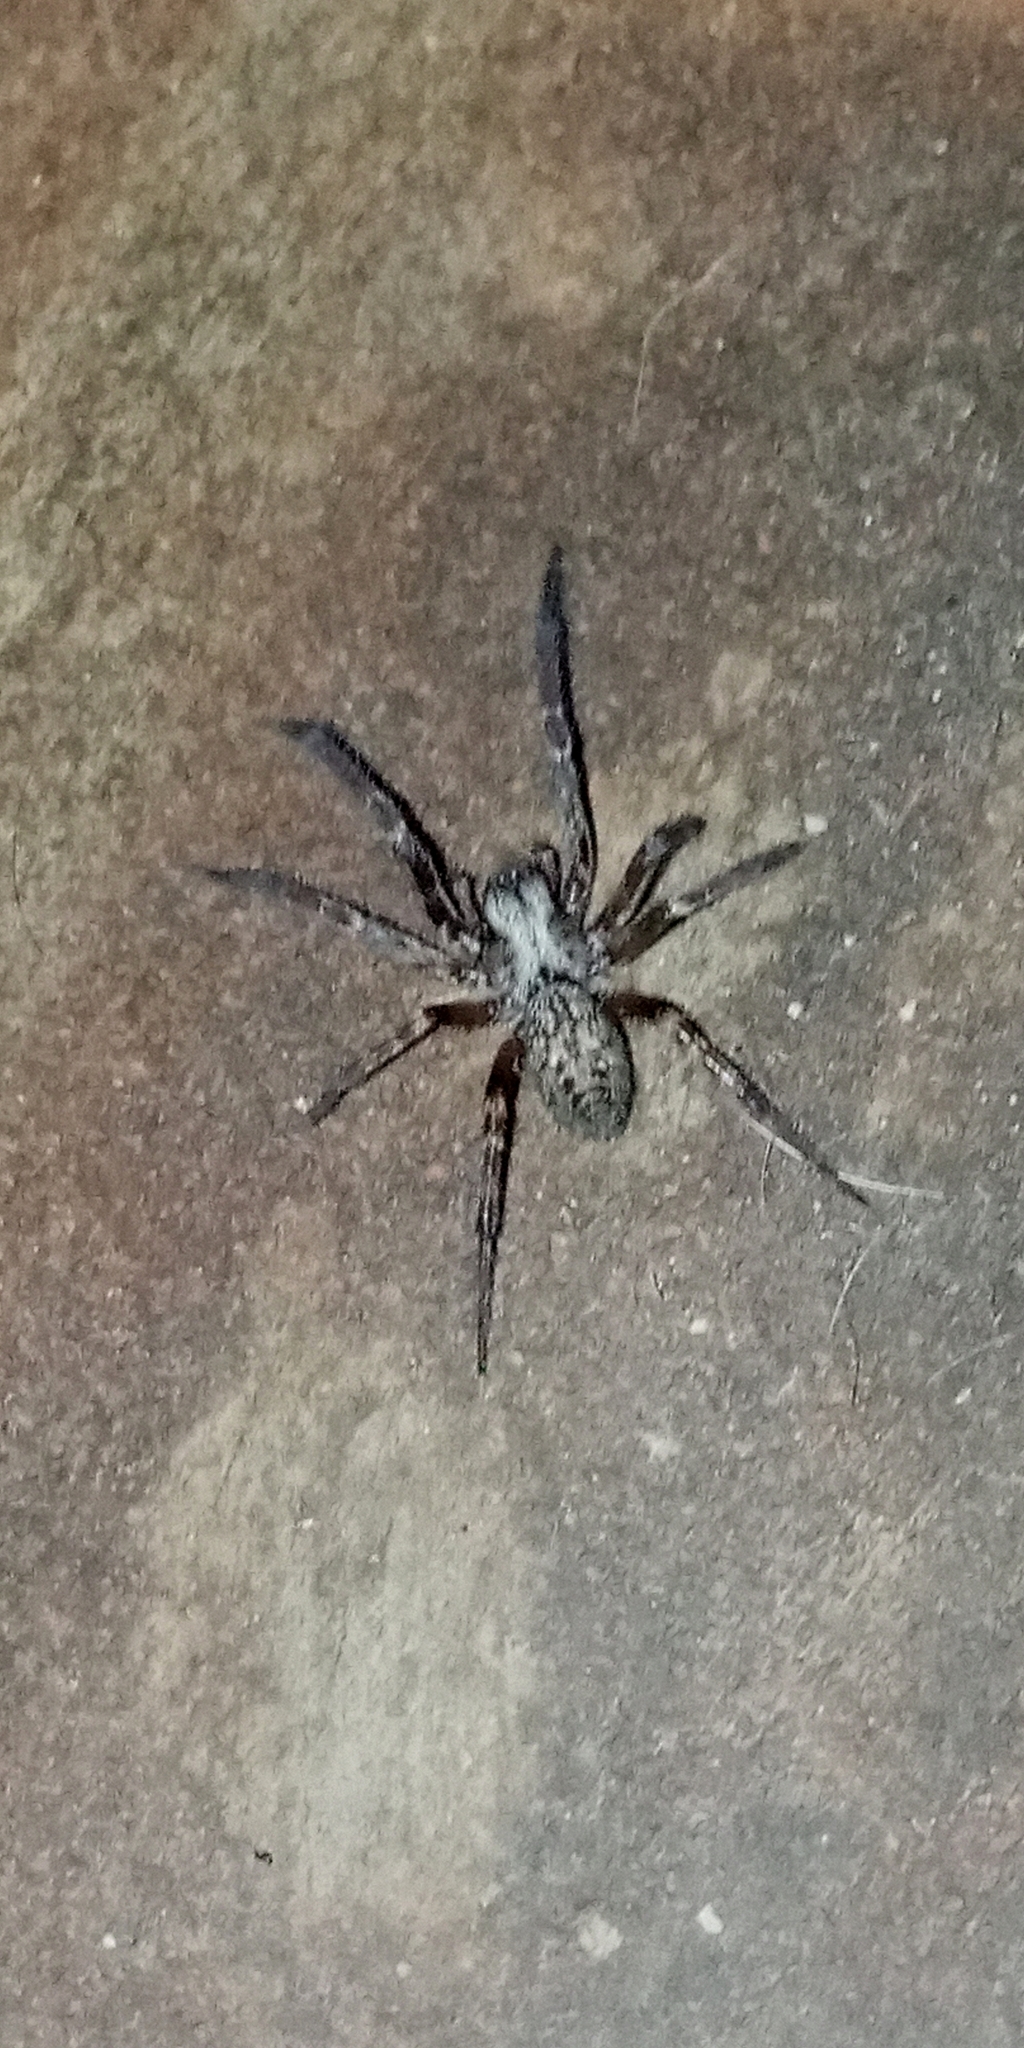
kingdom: Animalia
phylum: Arthropoda
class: Arachnida
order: Araneae
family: Desidae
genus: Badumna
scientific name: Badumna longinqua
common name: Gray house spider
